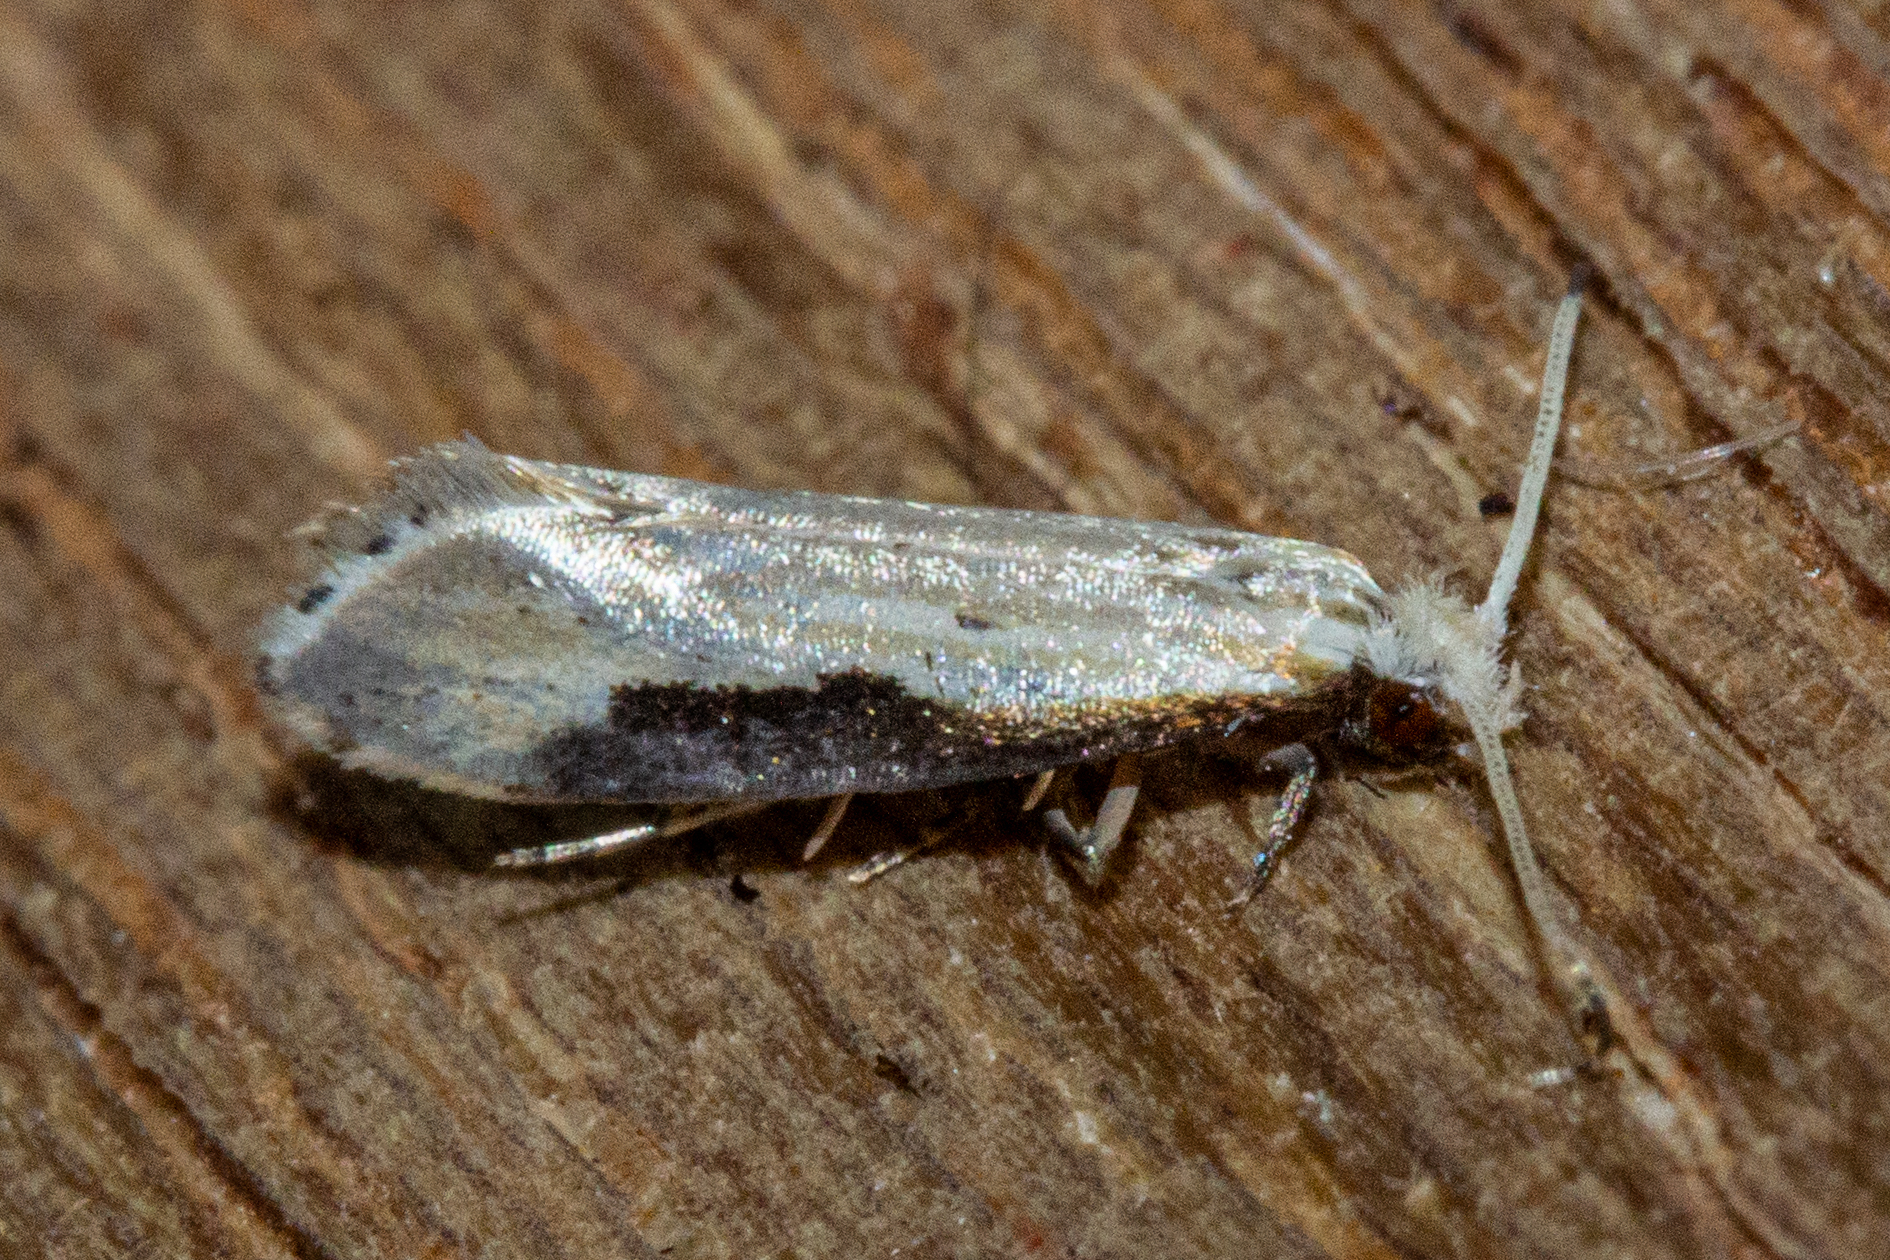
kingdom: Animalia
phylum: Arthropoda
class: Insecta
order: Lepidoptera
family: Tineidae
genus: Sagephora
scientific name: Sagephora phortegella
